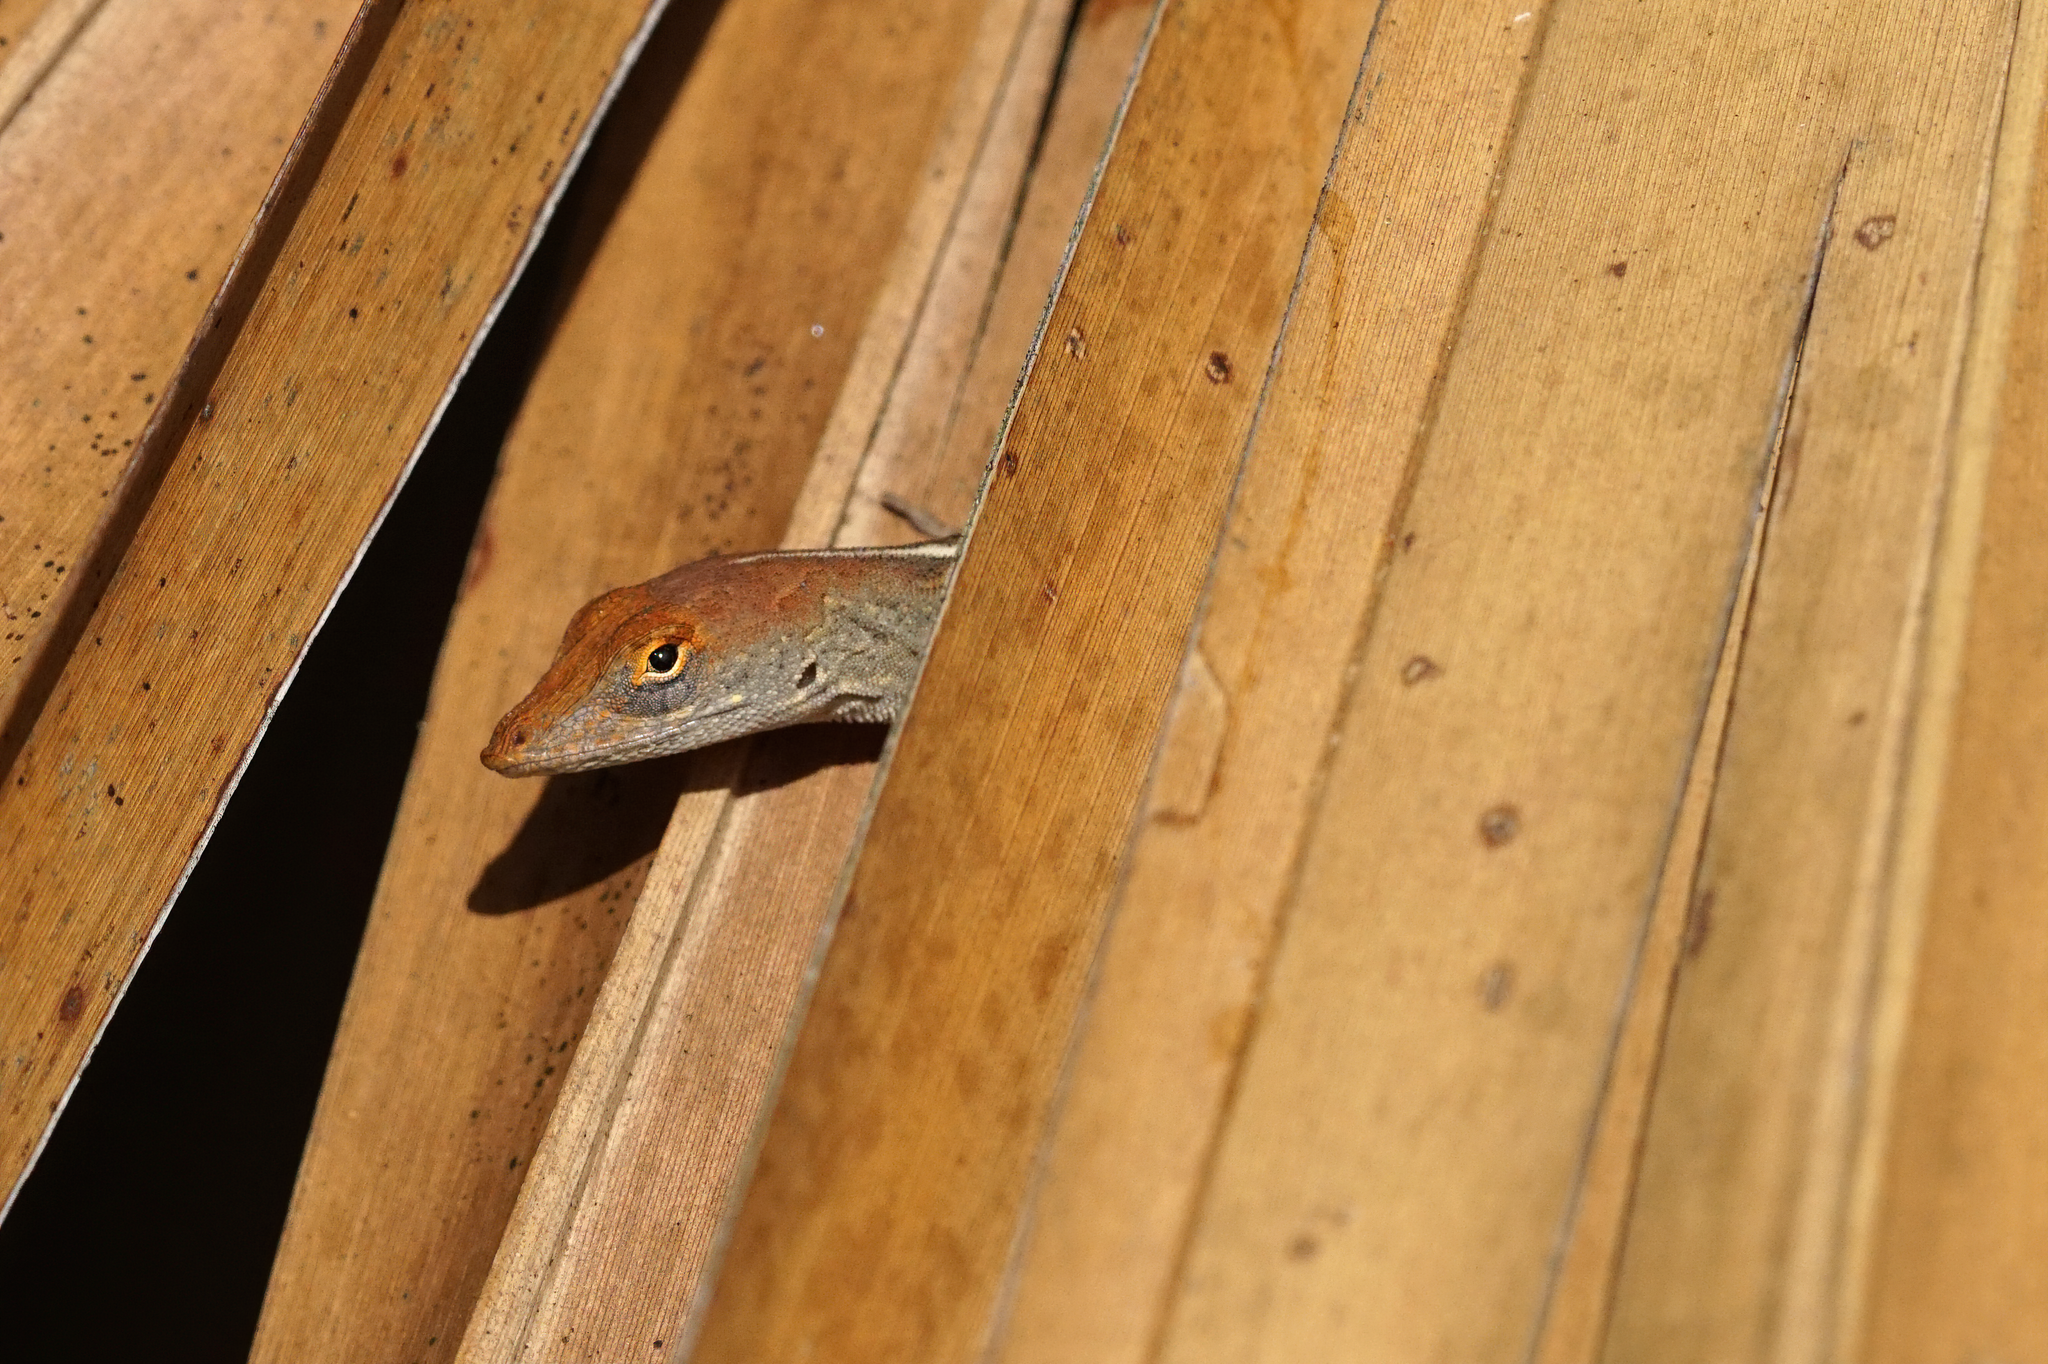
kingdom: Animalia
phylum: Chordata
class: Squamata
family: Dactyloidae
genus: Anolis
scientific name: Anolis sagrei
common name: Brown anole
